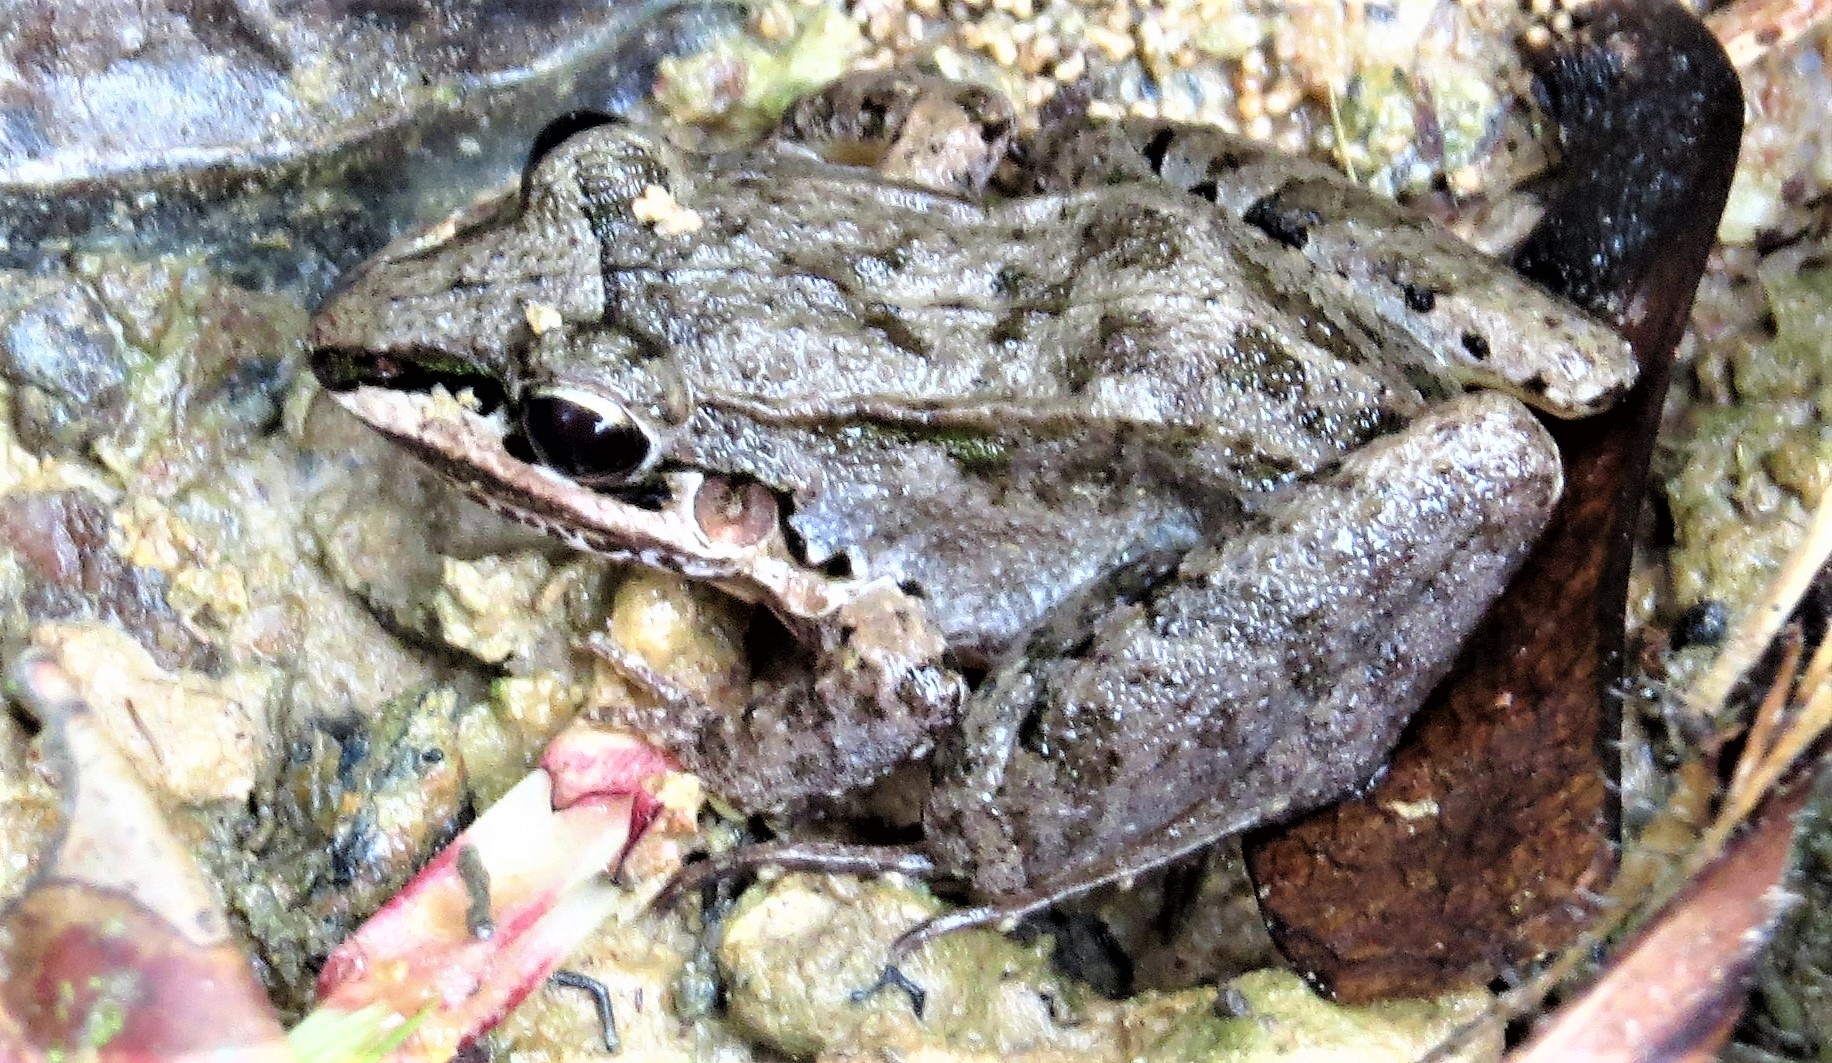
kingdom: Animalia
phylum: Chordata
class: Amphibia
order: Anura
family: Leptodactylidae
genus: Leptodactylus
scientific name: Leptodactylus longirostris
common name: Long snouted thin-toed frog
